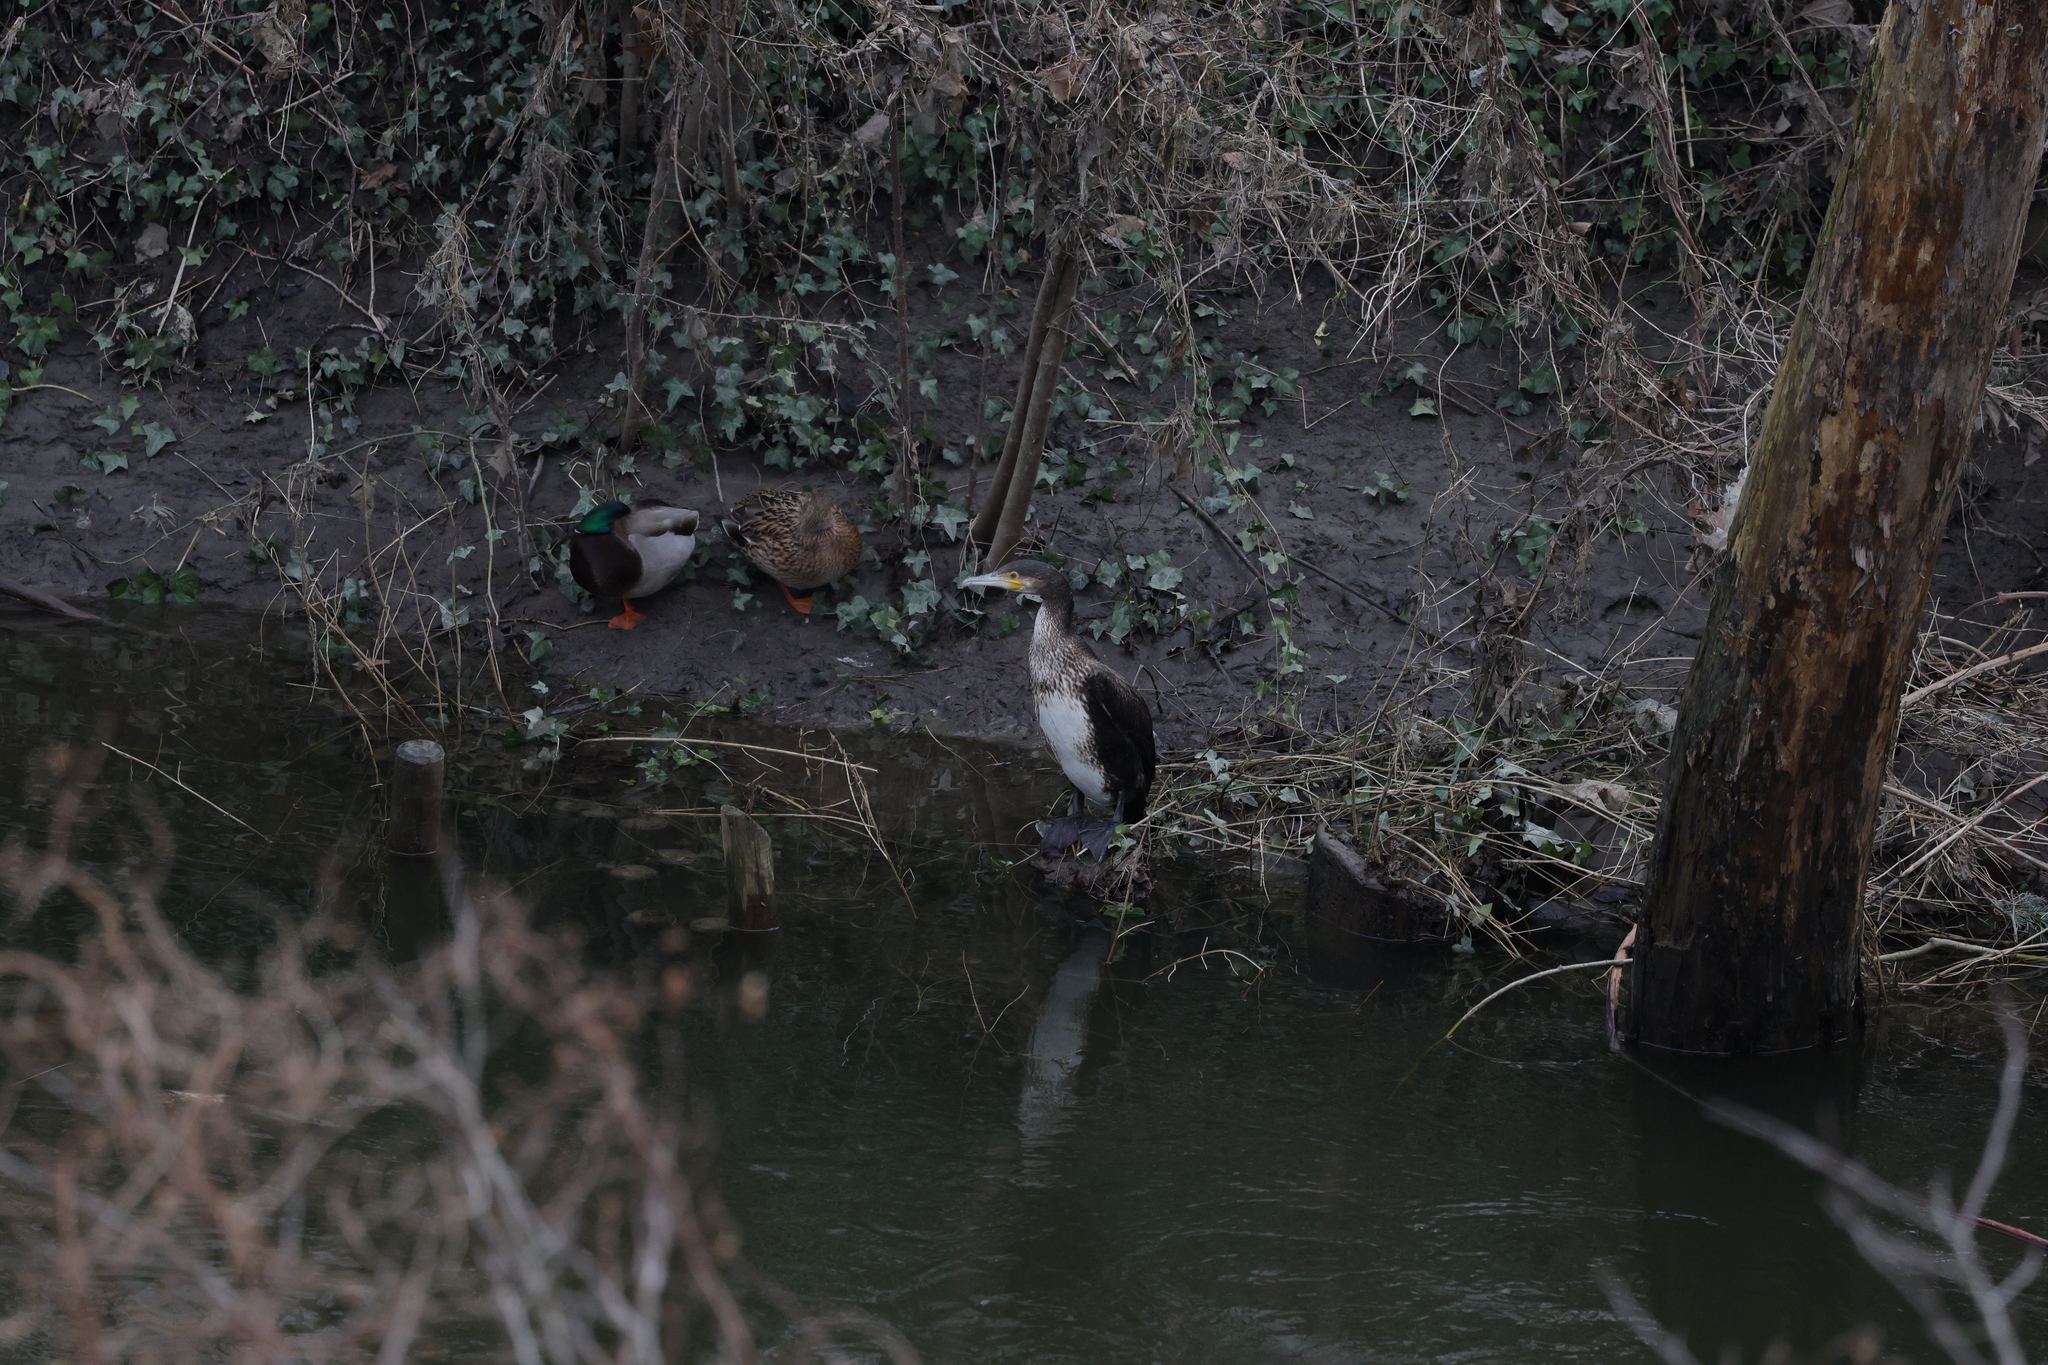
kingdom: Animalia
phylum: Chordata
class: Aves
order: Suliformes
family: Phalacrocoracidae
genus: Phalacrocorax
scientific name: Phalacrocorax carbo
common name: Great cormorant
